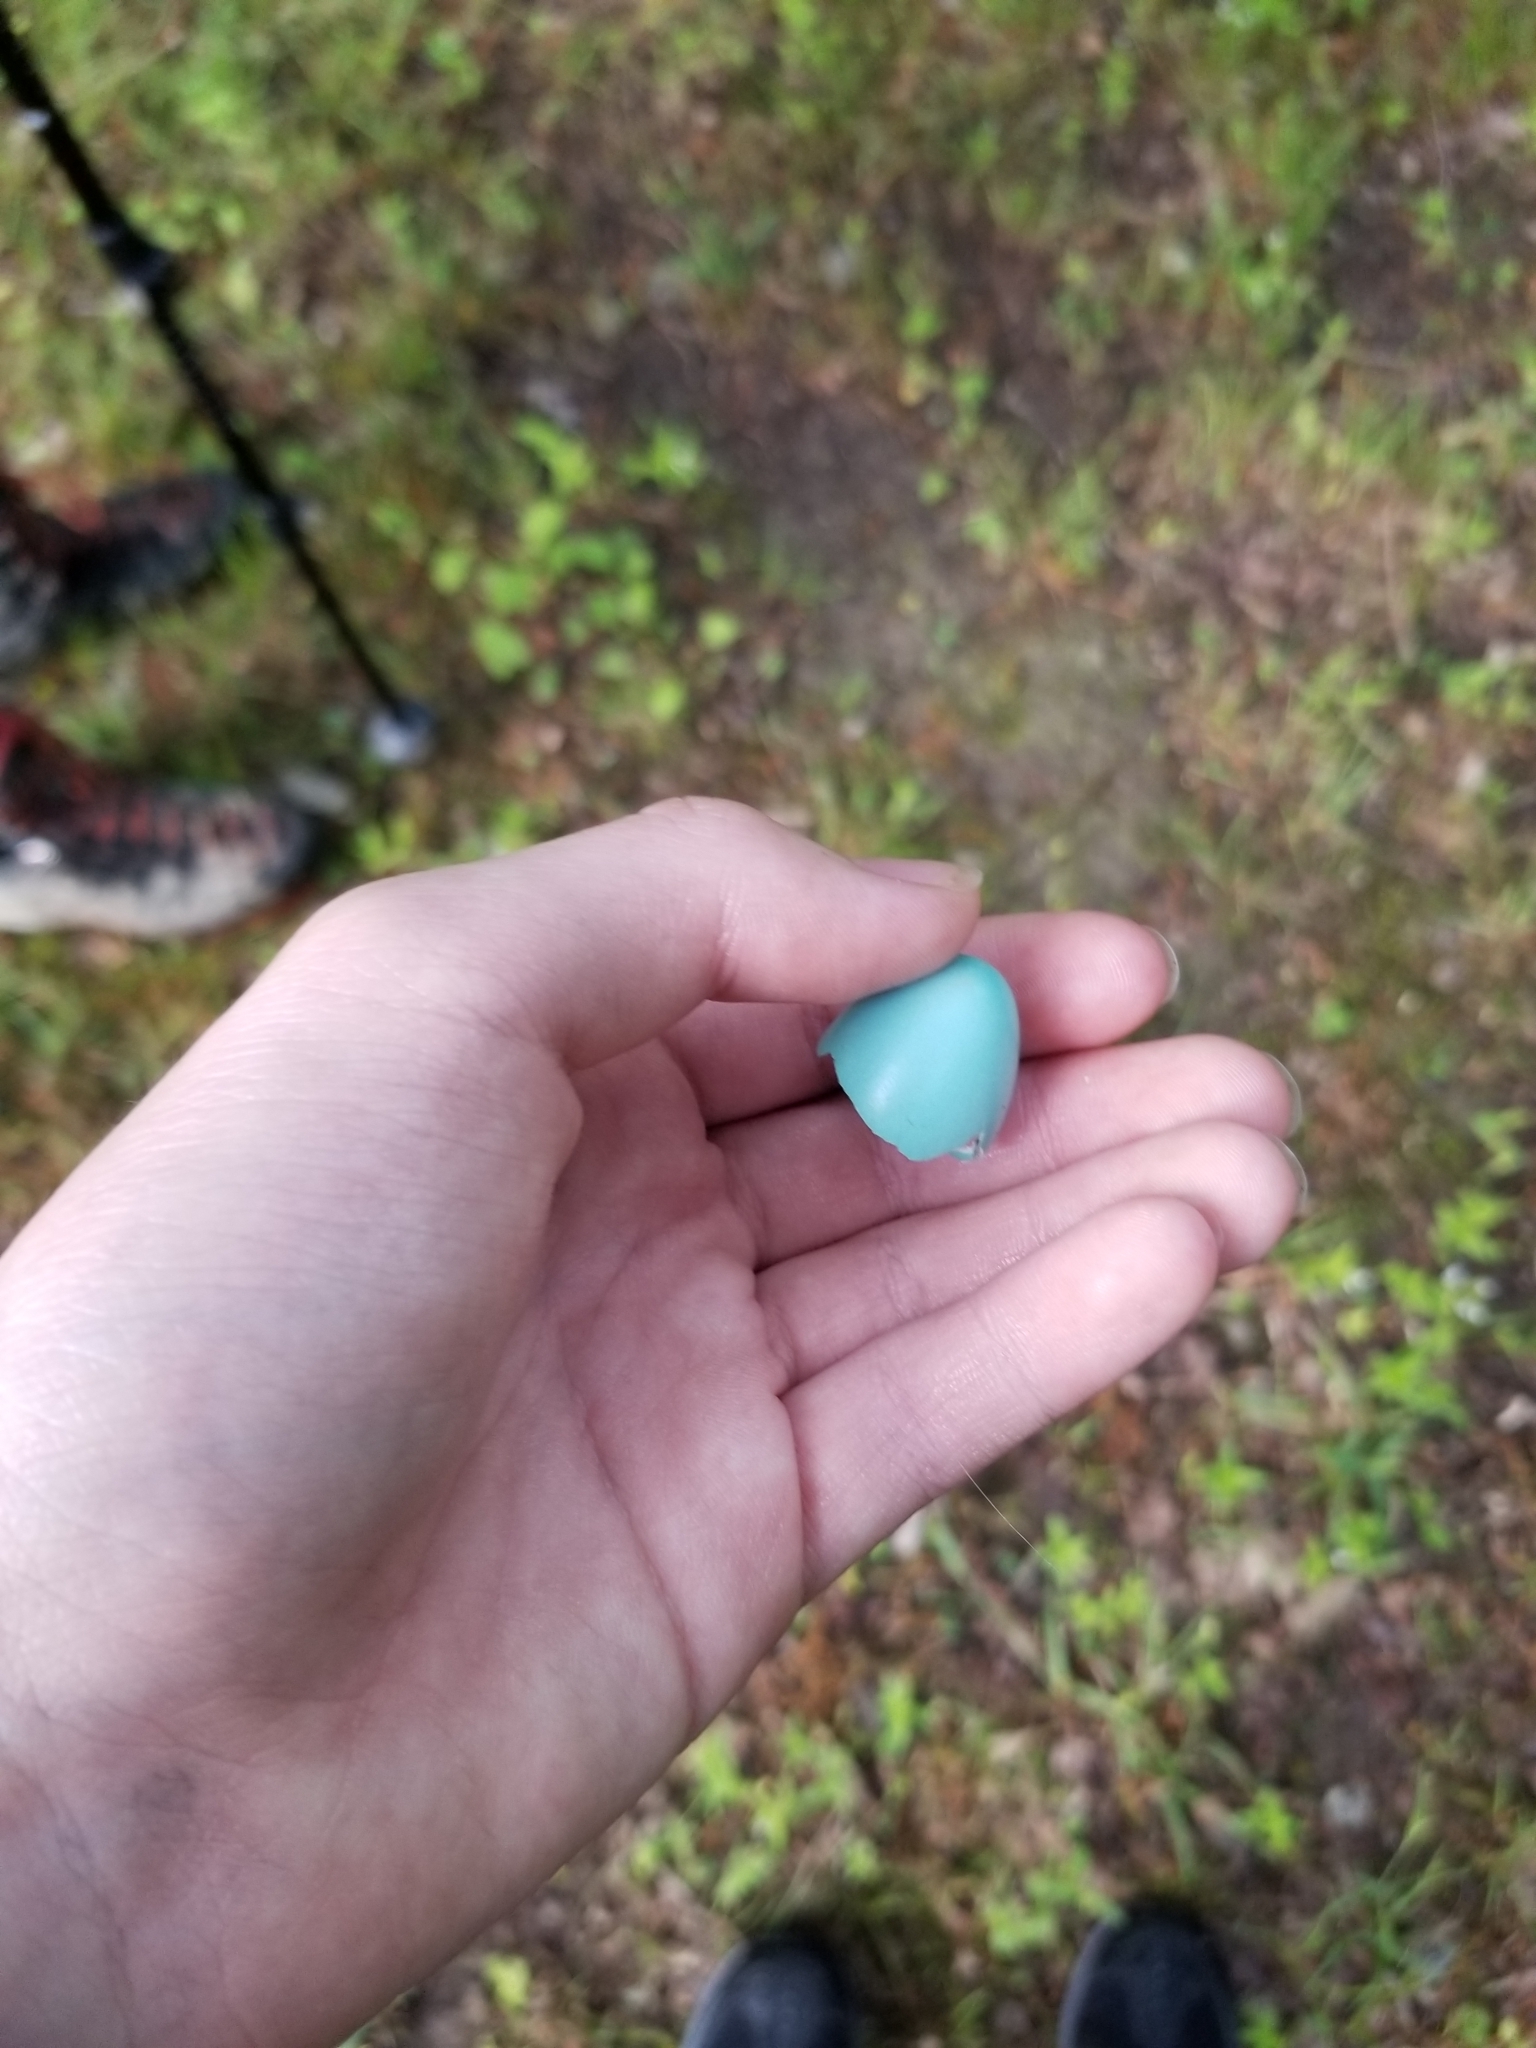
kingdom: Animalia
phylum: Chordata
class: Aves
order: Passeriformes
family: Turdidae
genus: Turdus
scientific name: Turdus migratorius
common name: American robin
